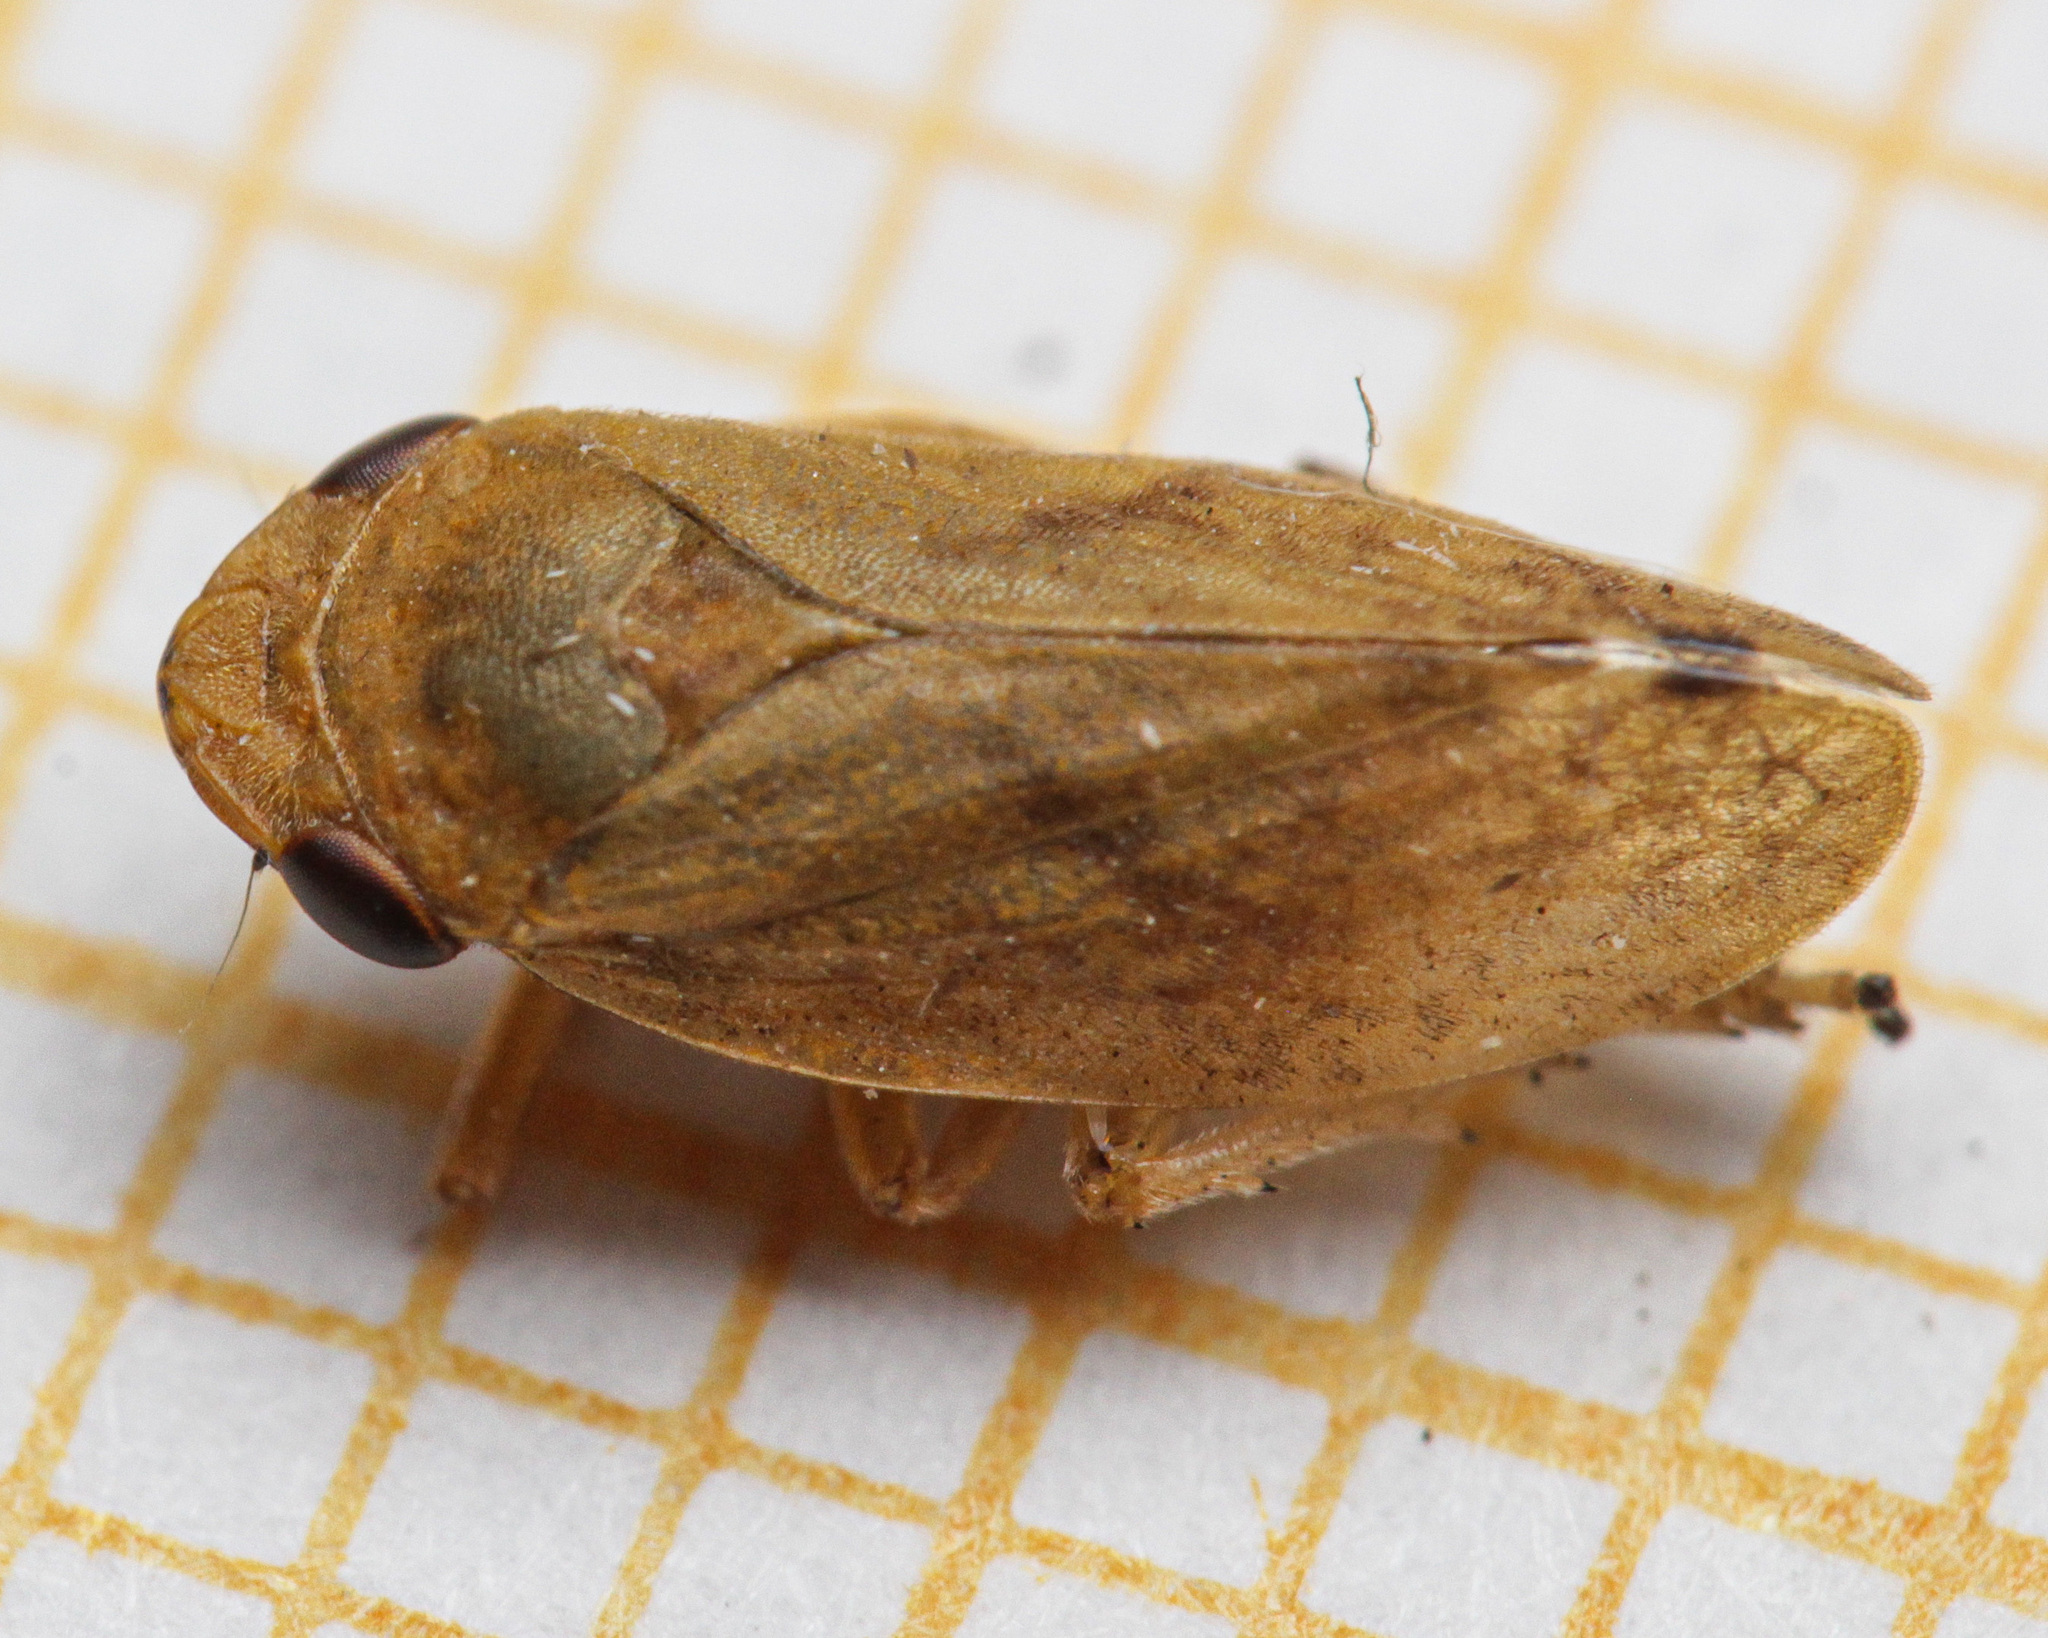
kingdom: Animalia
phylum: Arthropoda
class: Insecta
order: Hemiptera
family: Aphrophoridae
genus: Philaenus
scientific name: Philaenus spumarius
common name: Meadow spittlebug
